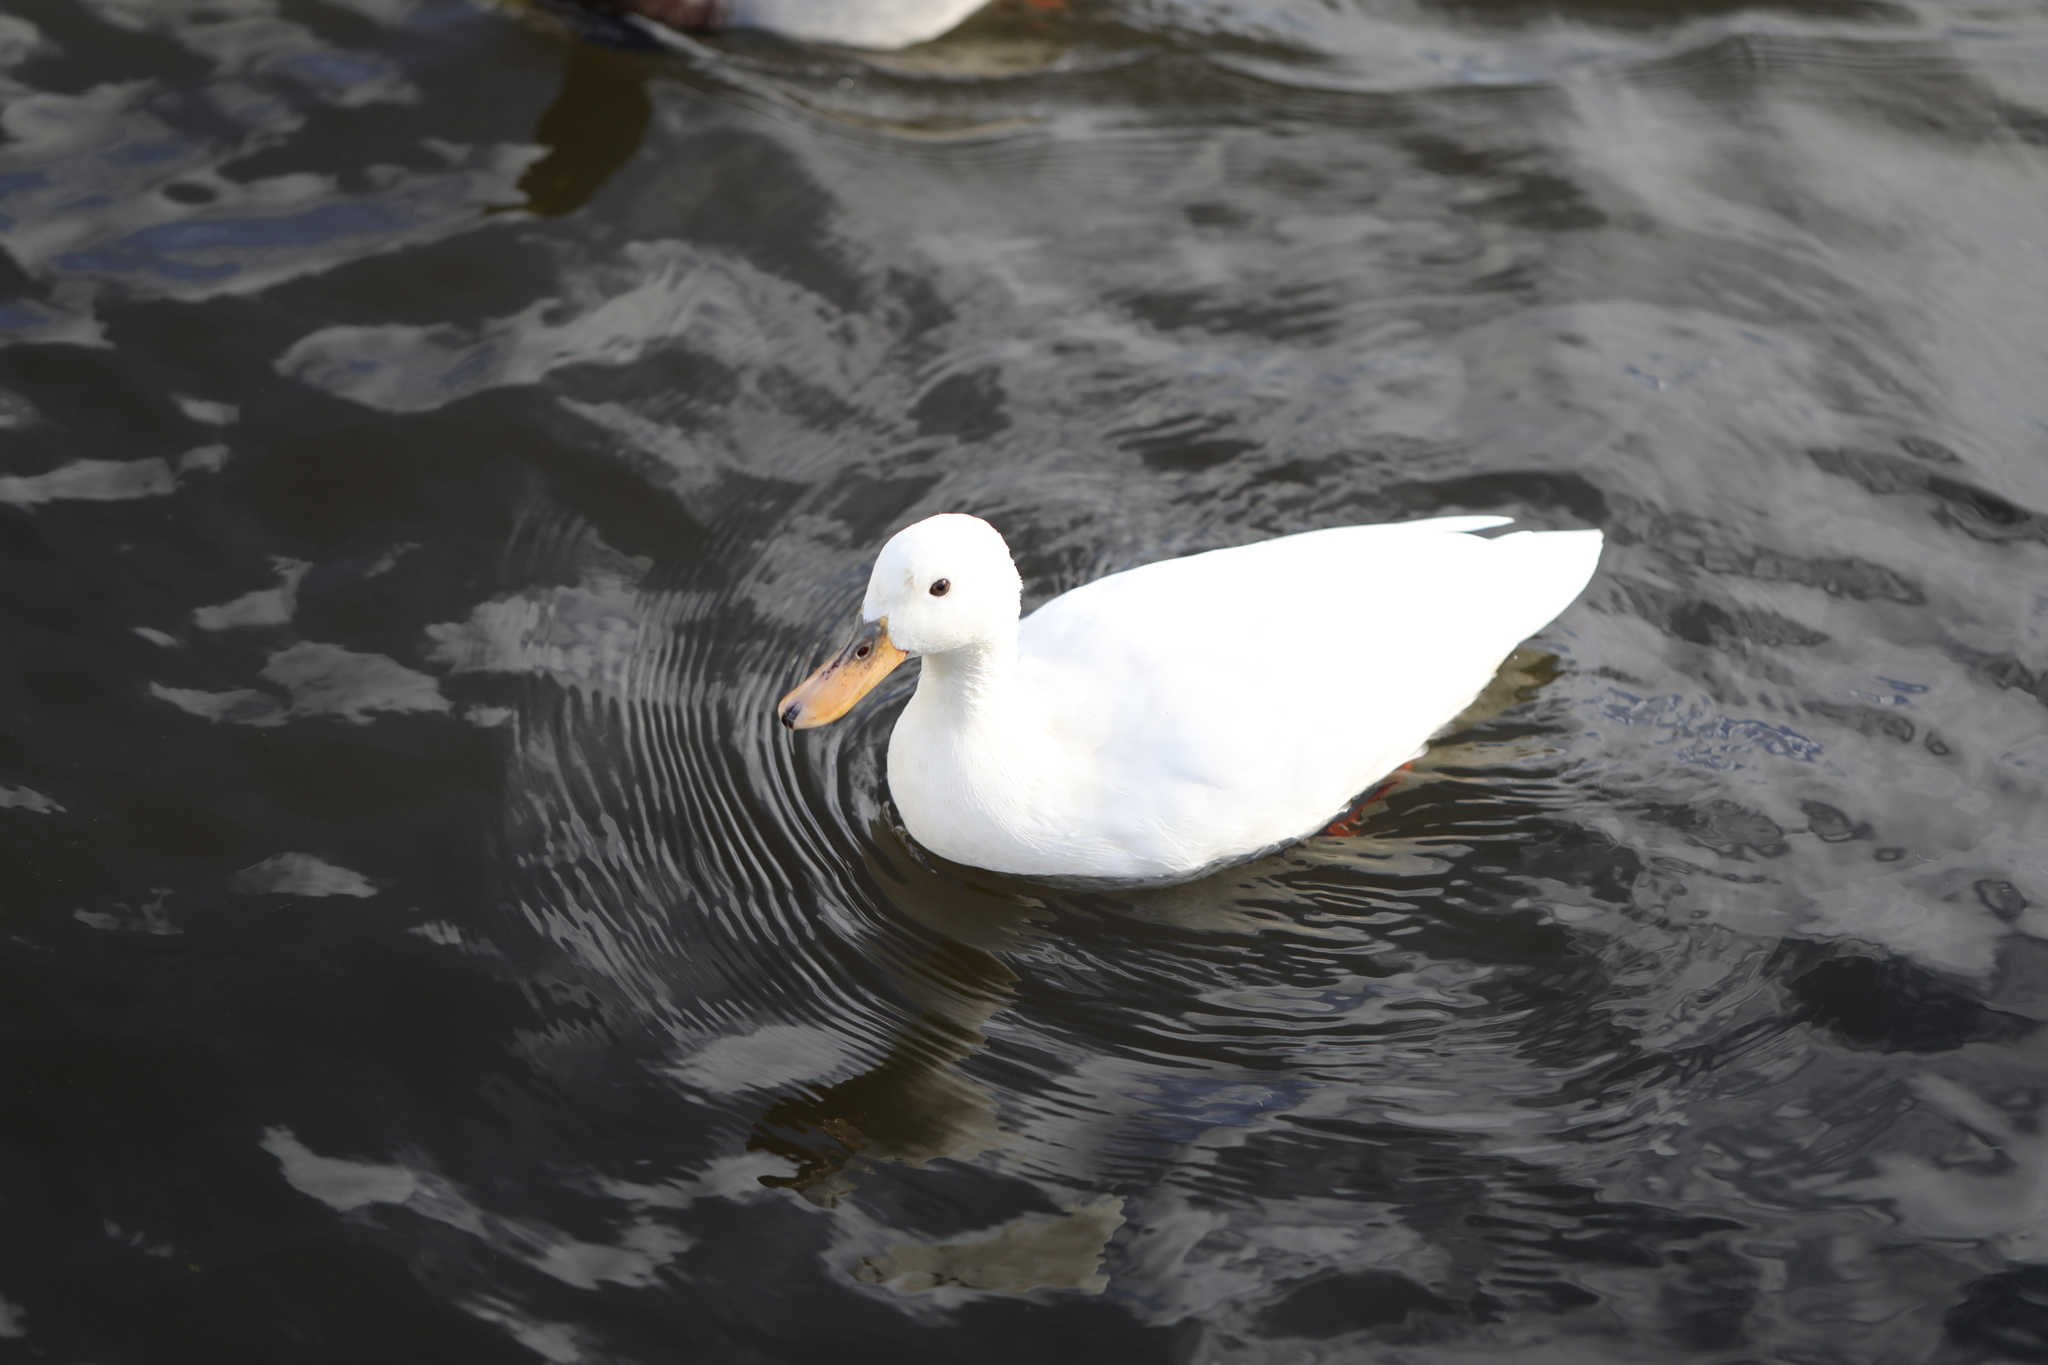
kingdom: Animalia
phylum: Chordata
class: Aves
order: Anseriformes
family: Anatidae
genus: Anas
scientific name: Anas platyrhynchos
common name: Mallard
